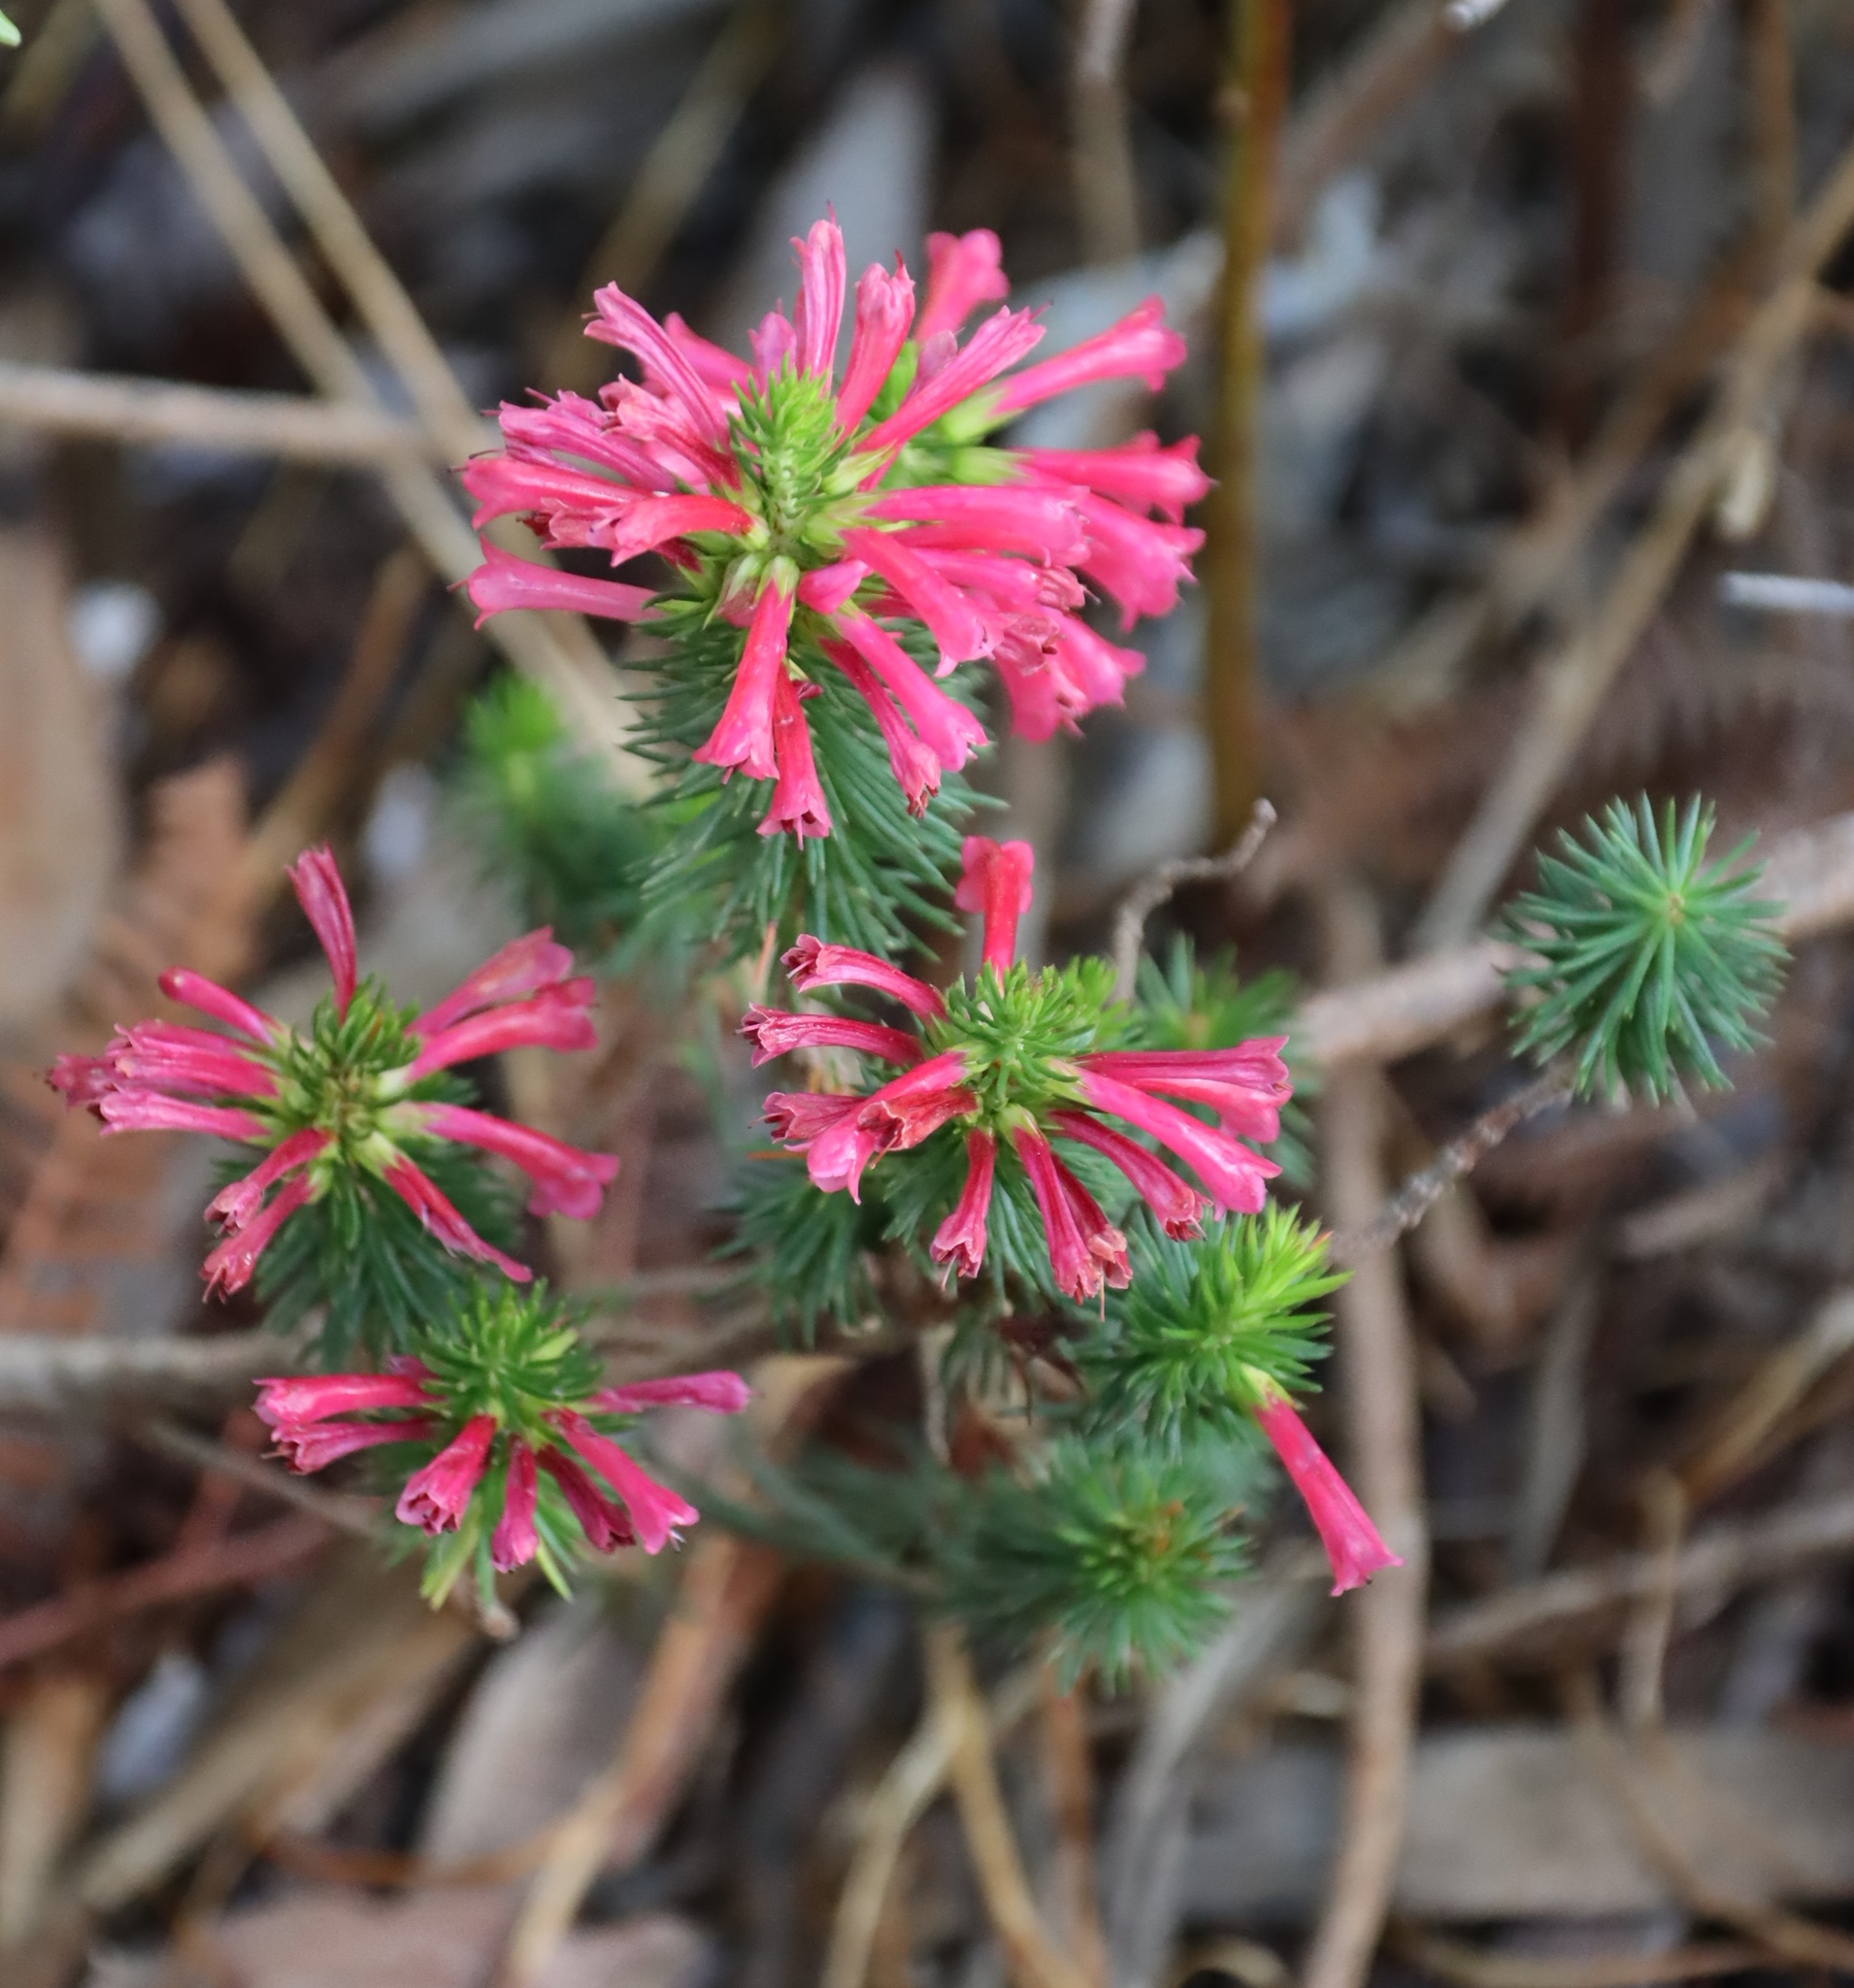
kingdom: Plantae
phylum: Tracheophyta
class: Magnoliopsida
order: Ericales
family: Ericaceae
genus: Erica
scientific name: Erica abietina
